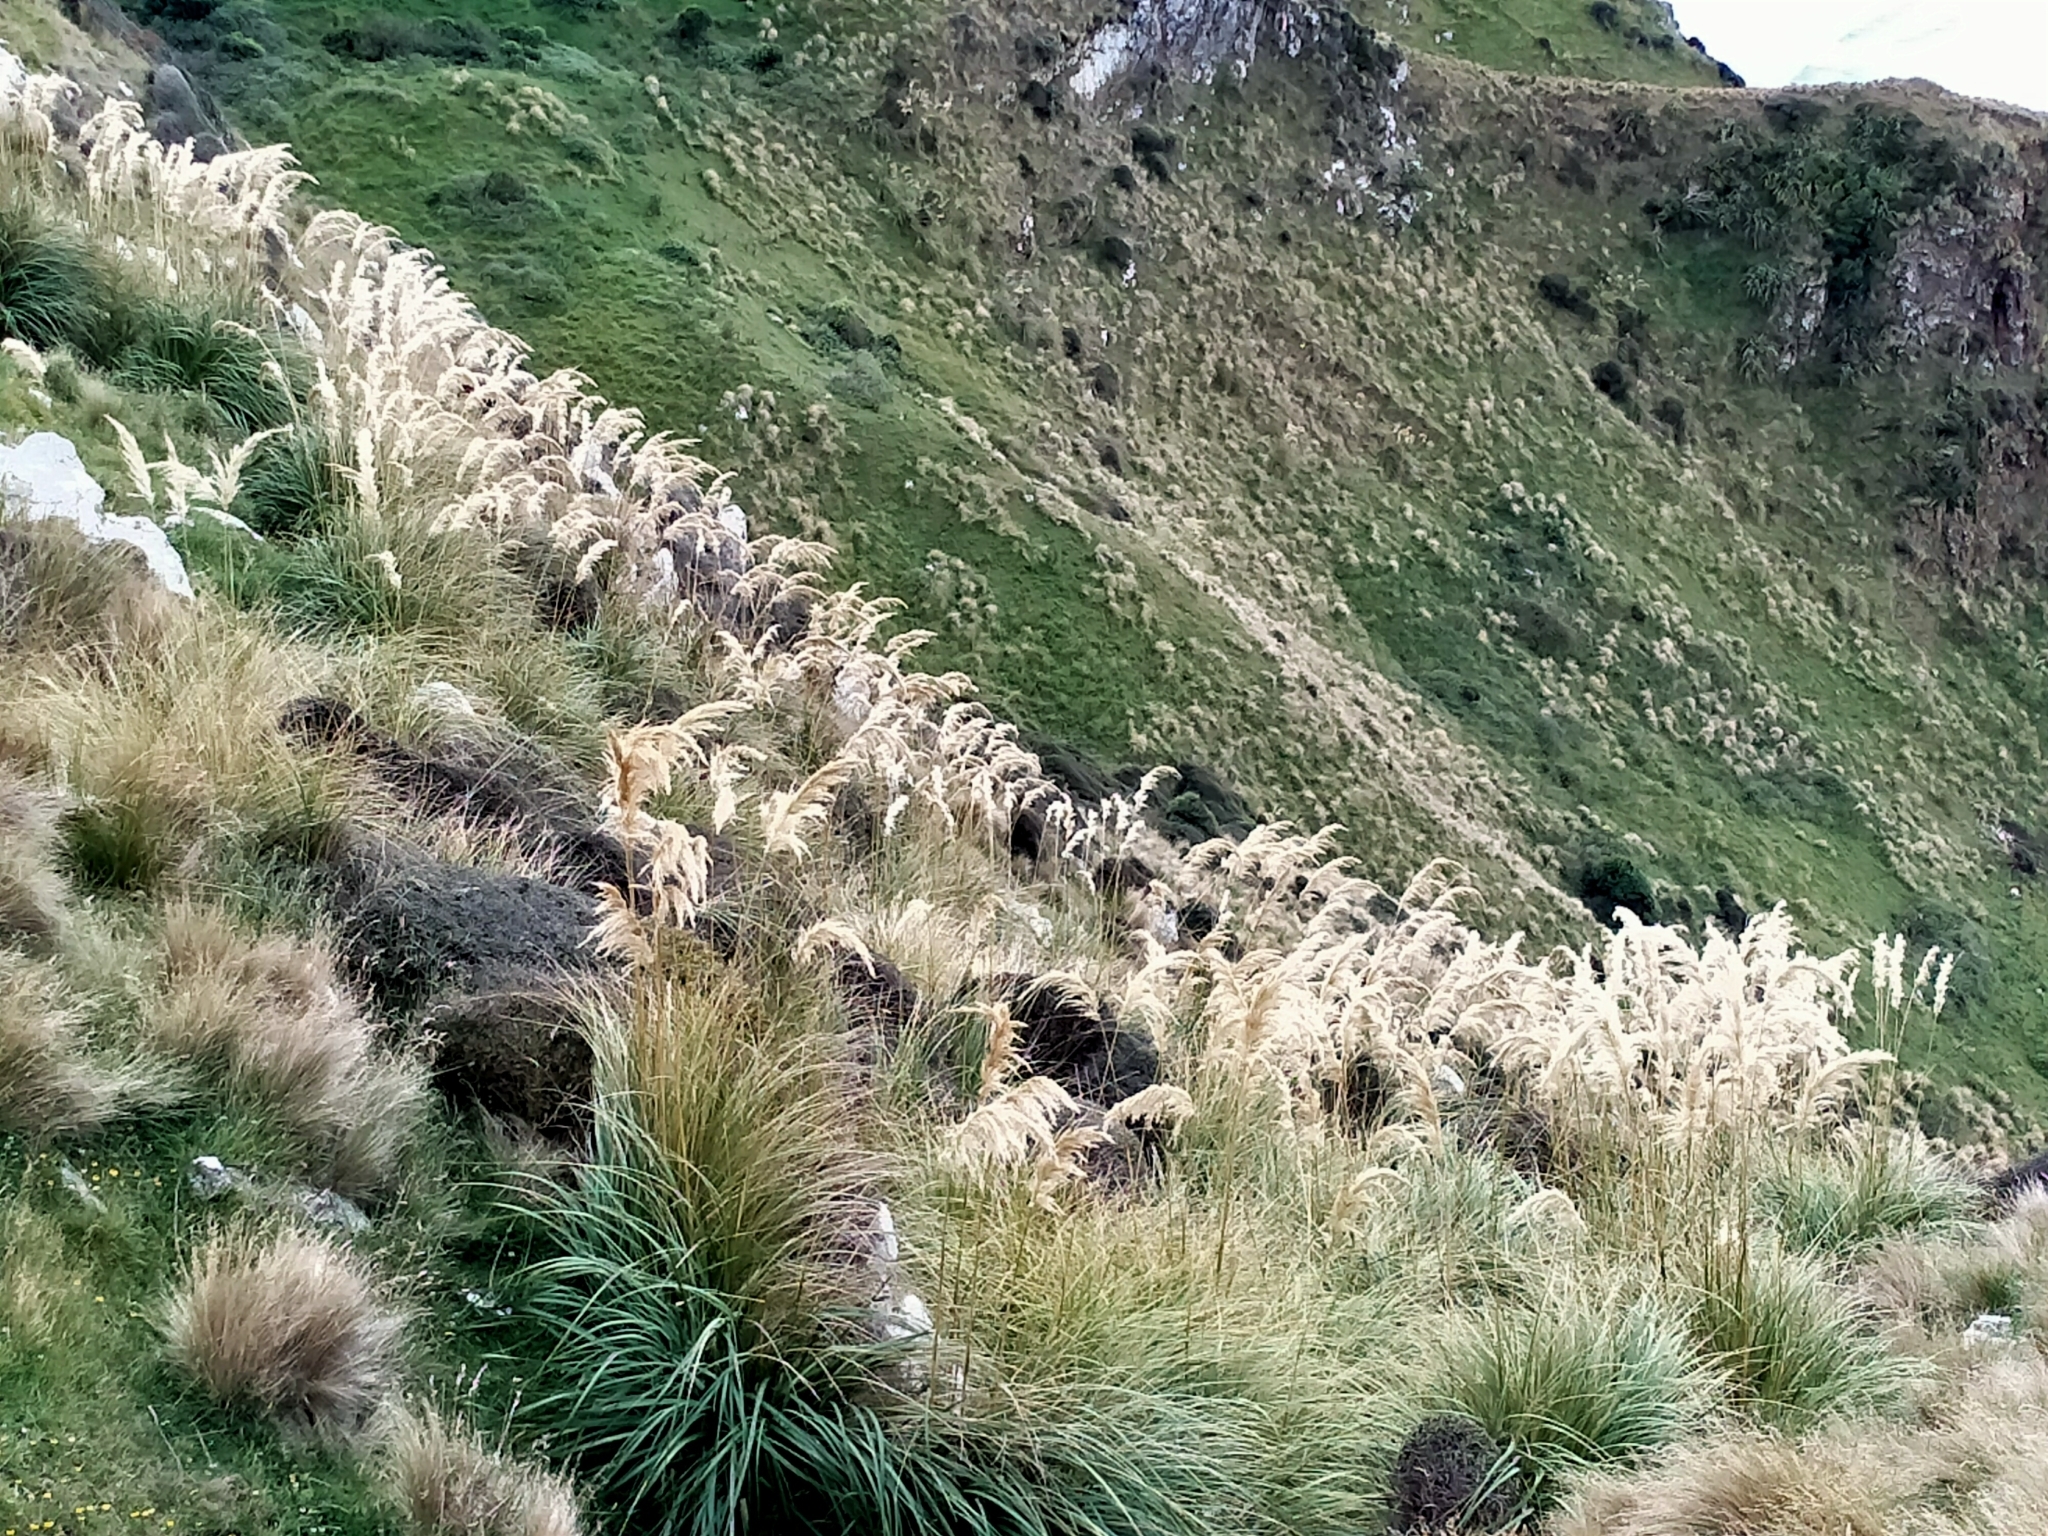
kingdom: Plantae
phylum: Tracheophyta
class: Liliopsida
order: Poales
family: Poaceae
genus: Austroderia
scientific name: Austroderia richardii
